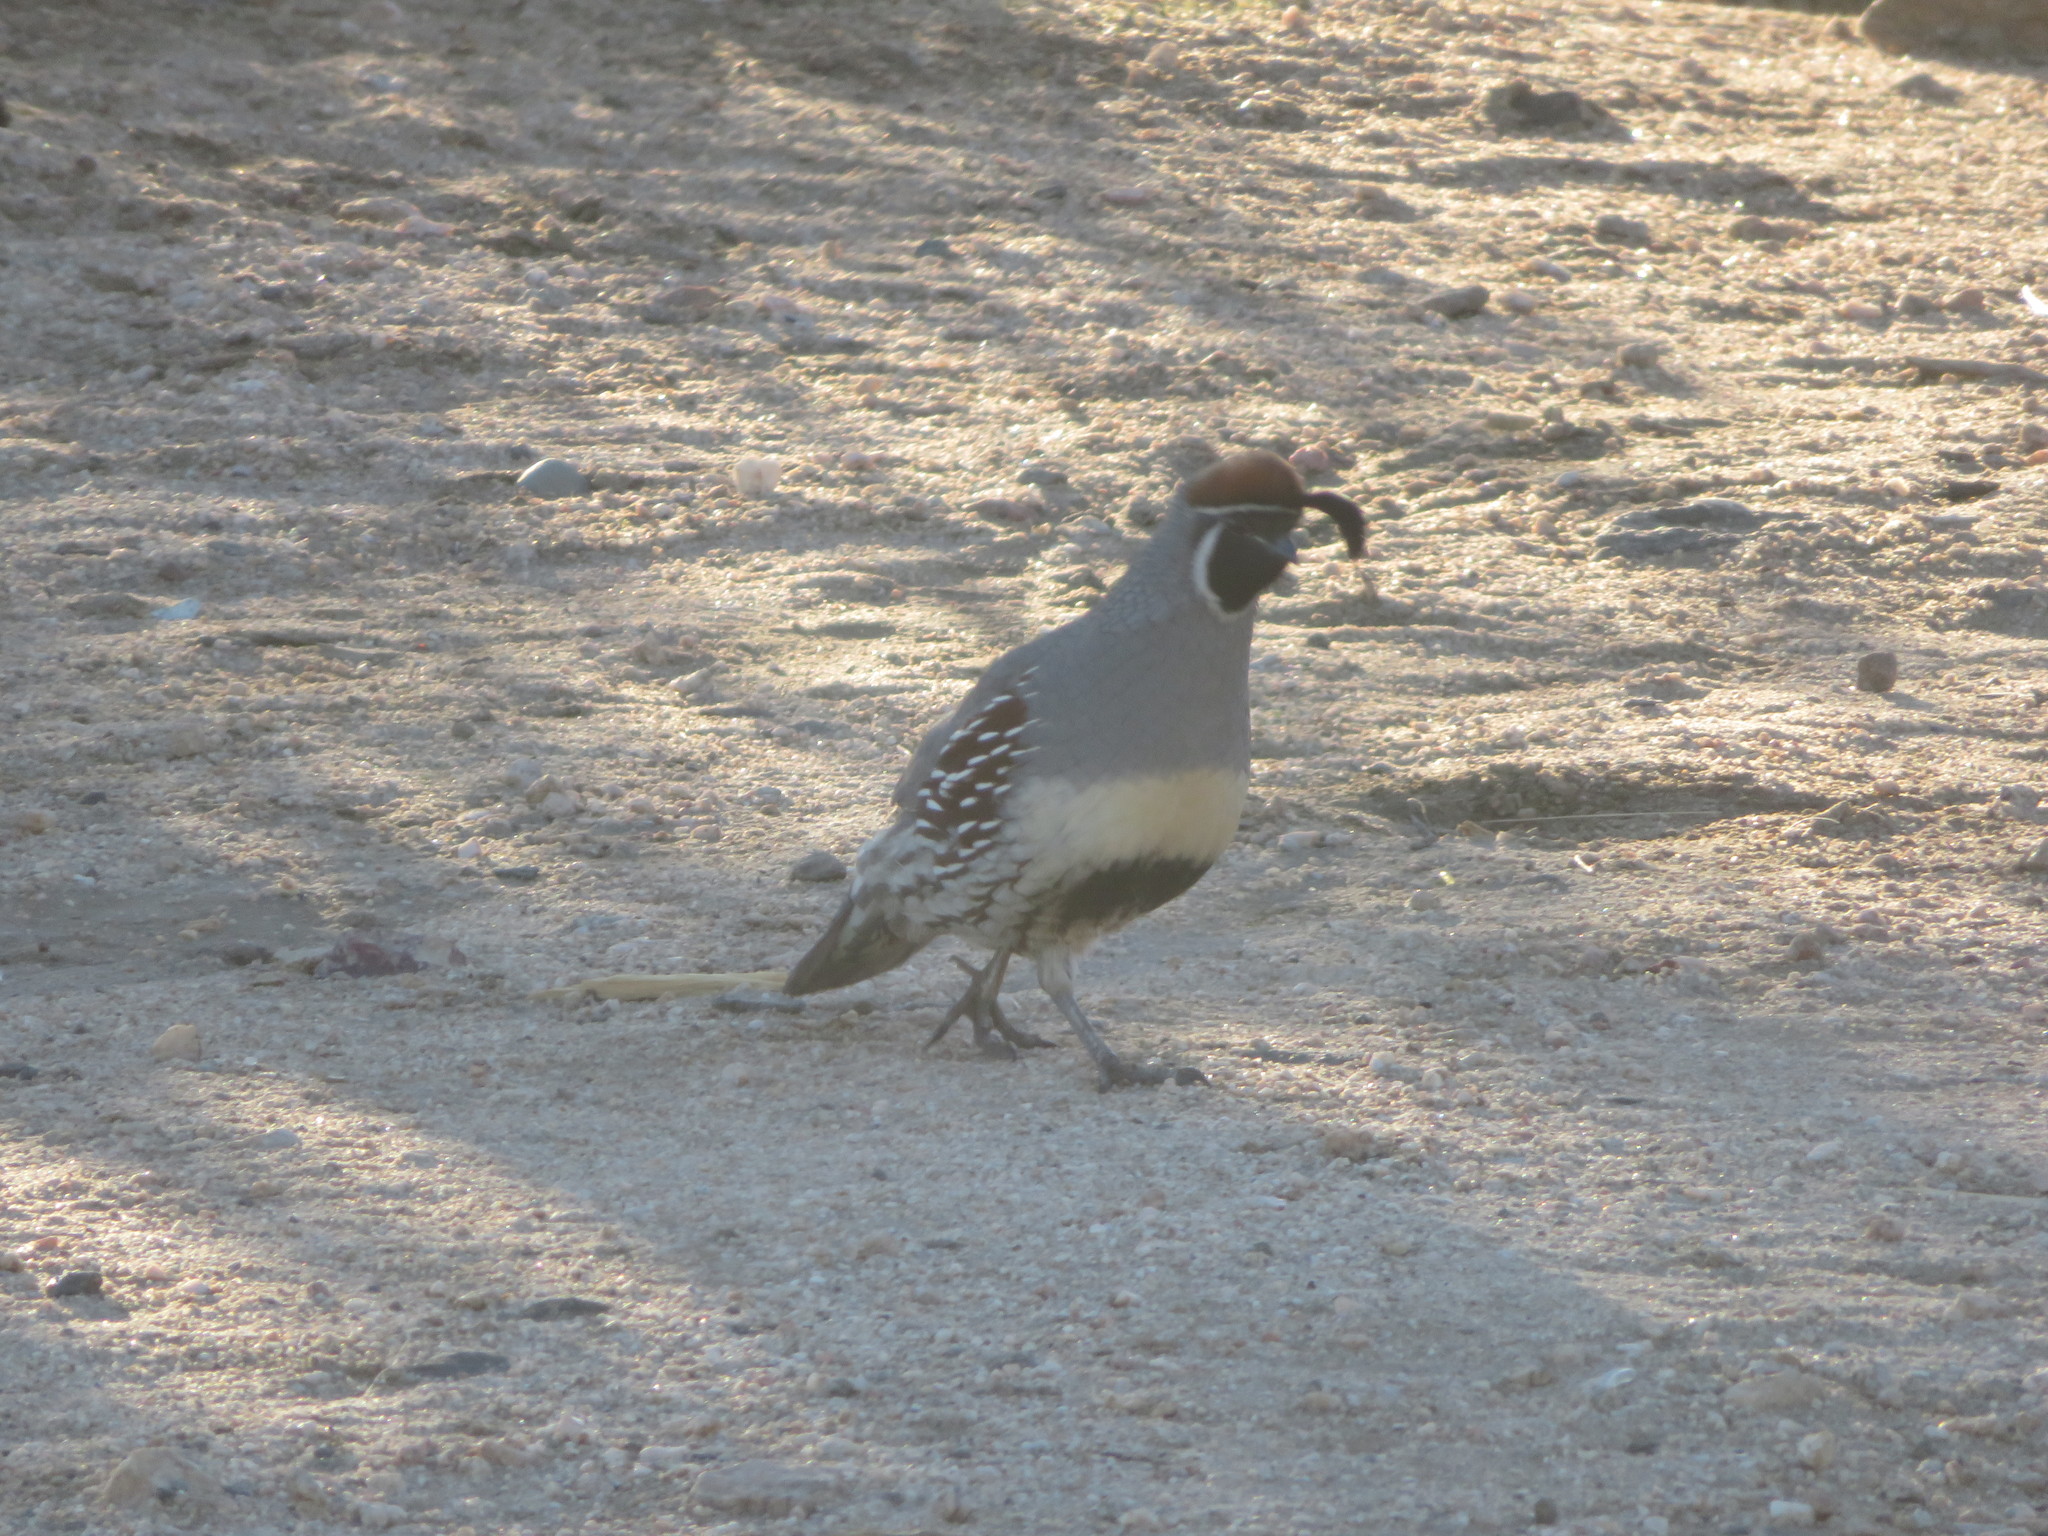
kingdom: Animalia
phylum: Chordata
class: Aves
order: Galliformes
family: Odontophoridae
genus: Callipepla
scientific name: Callipepla gambelii
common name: Gambel's quail
